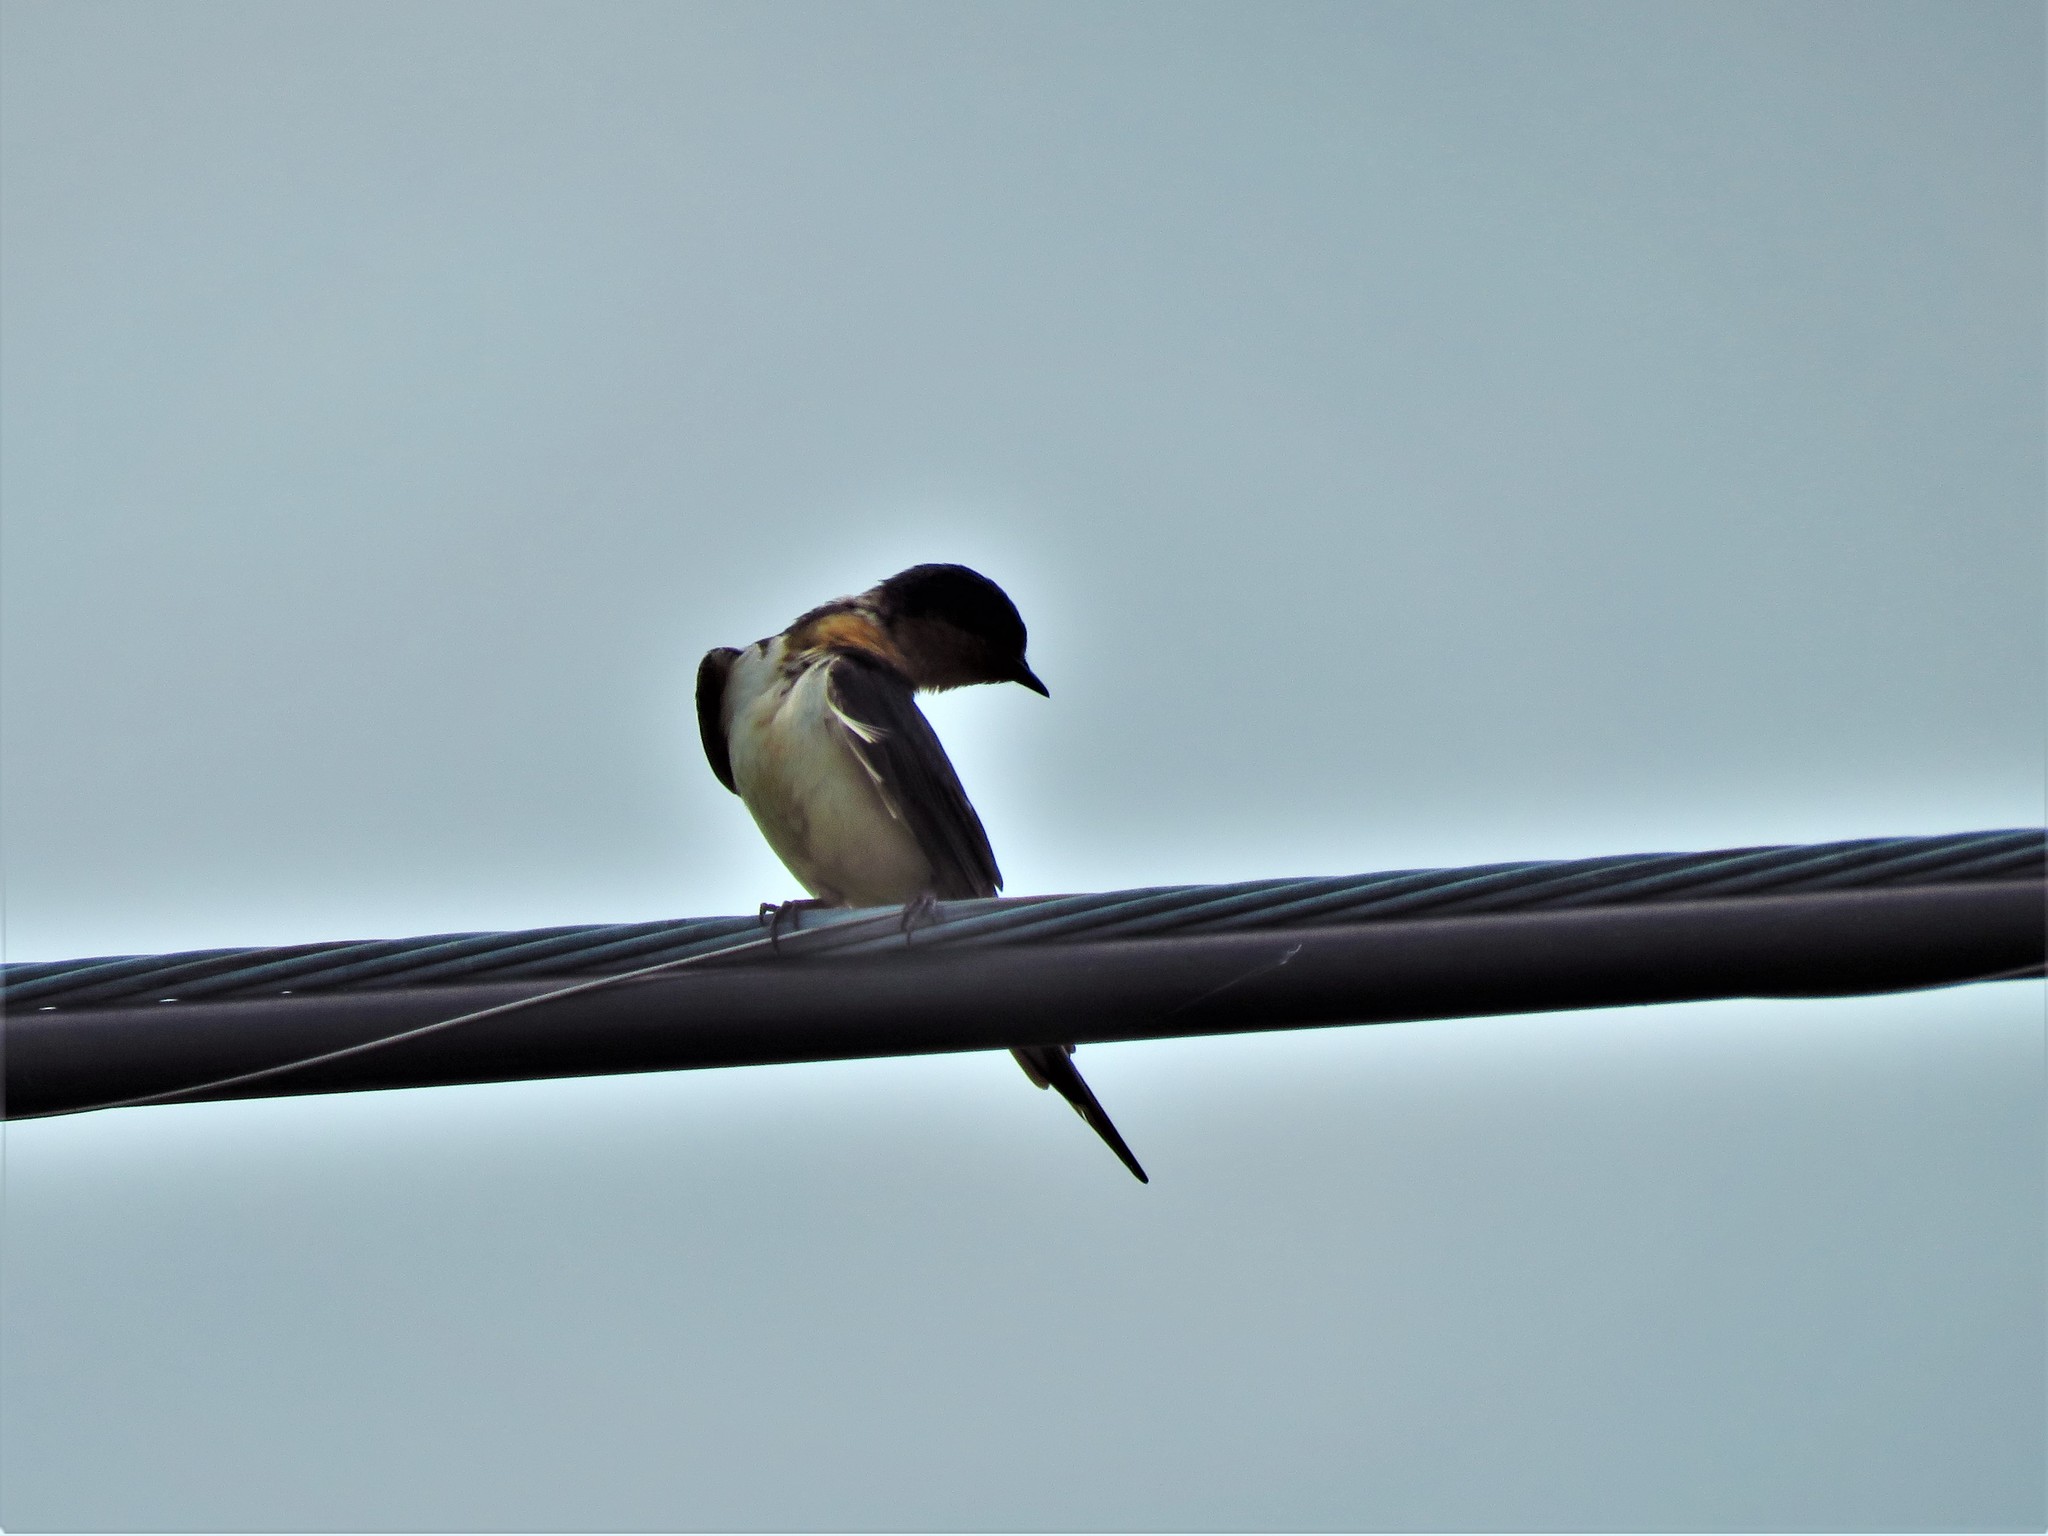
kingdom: Animalia
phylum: Chordata
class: Aves
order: Passeriformes
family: Hirundinidae
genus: Hirundo
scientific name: Hirundo rustica
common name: Barn swallow
